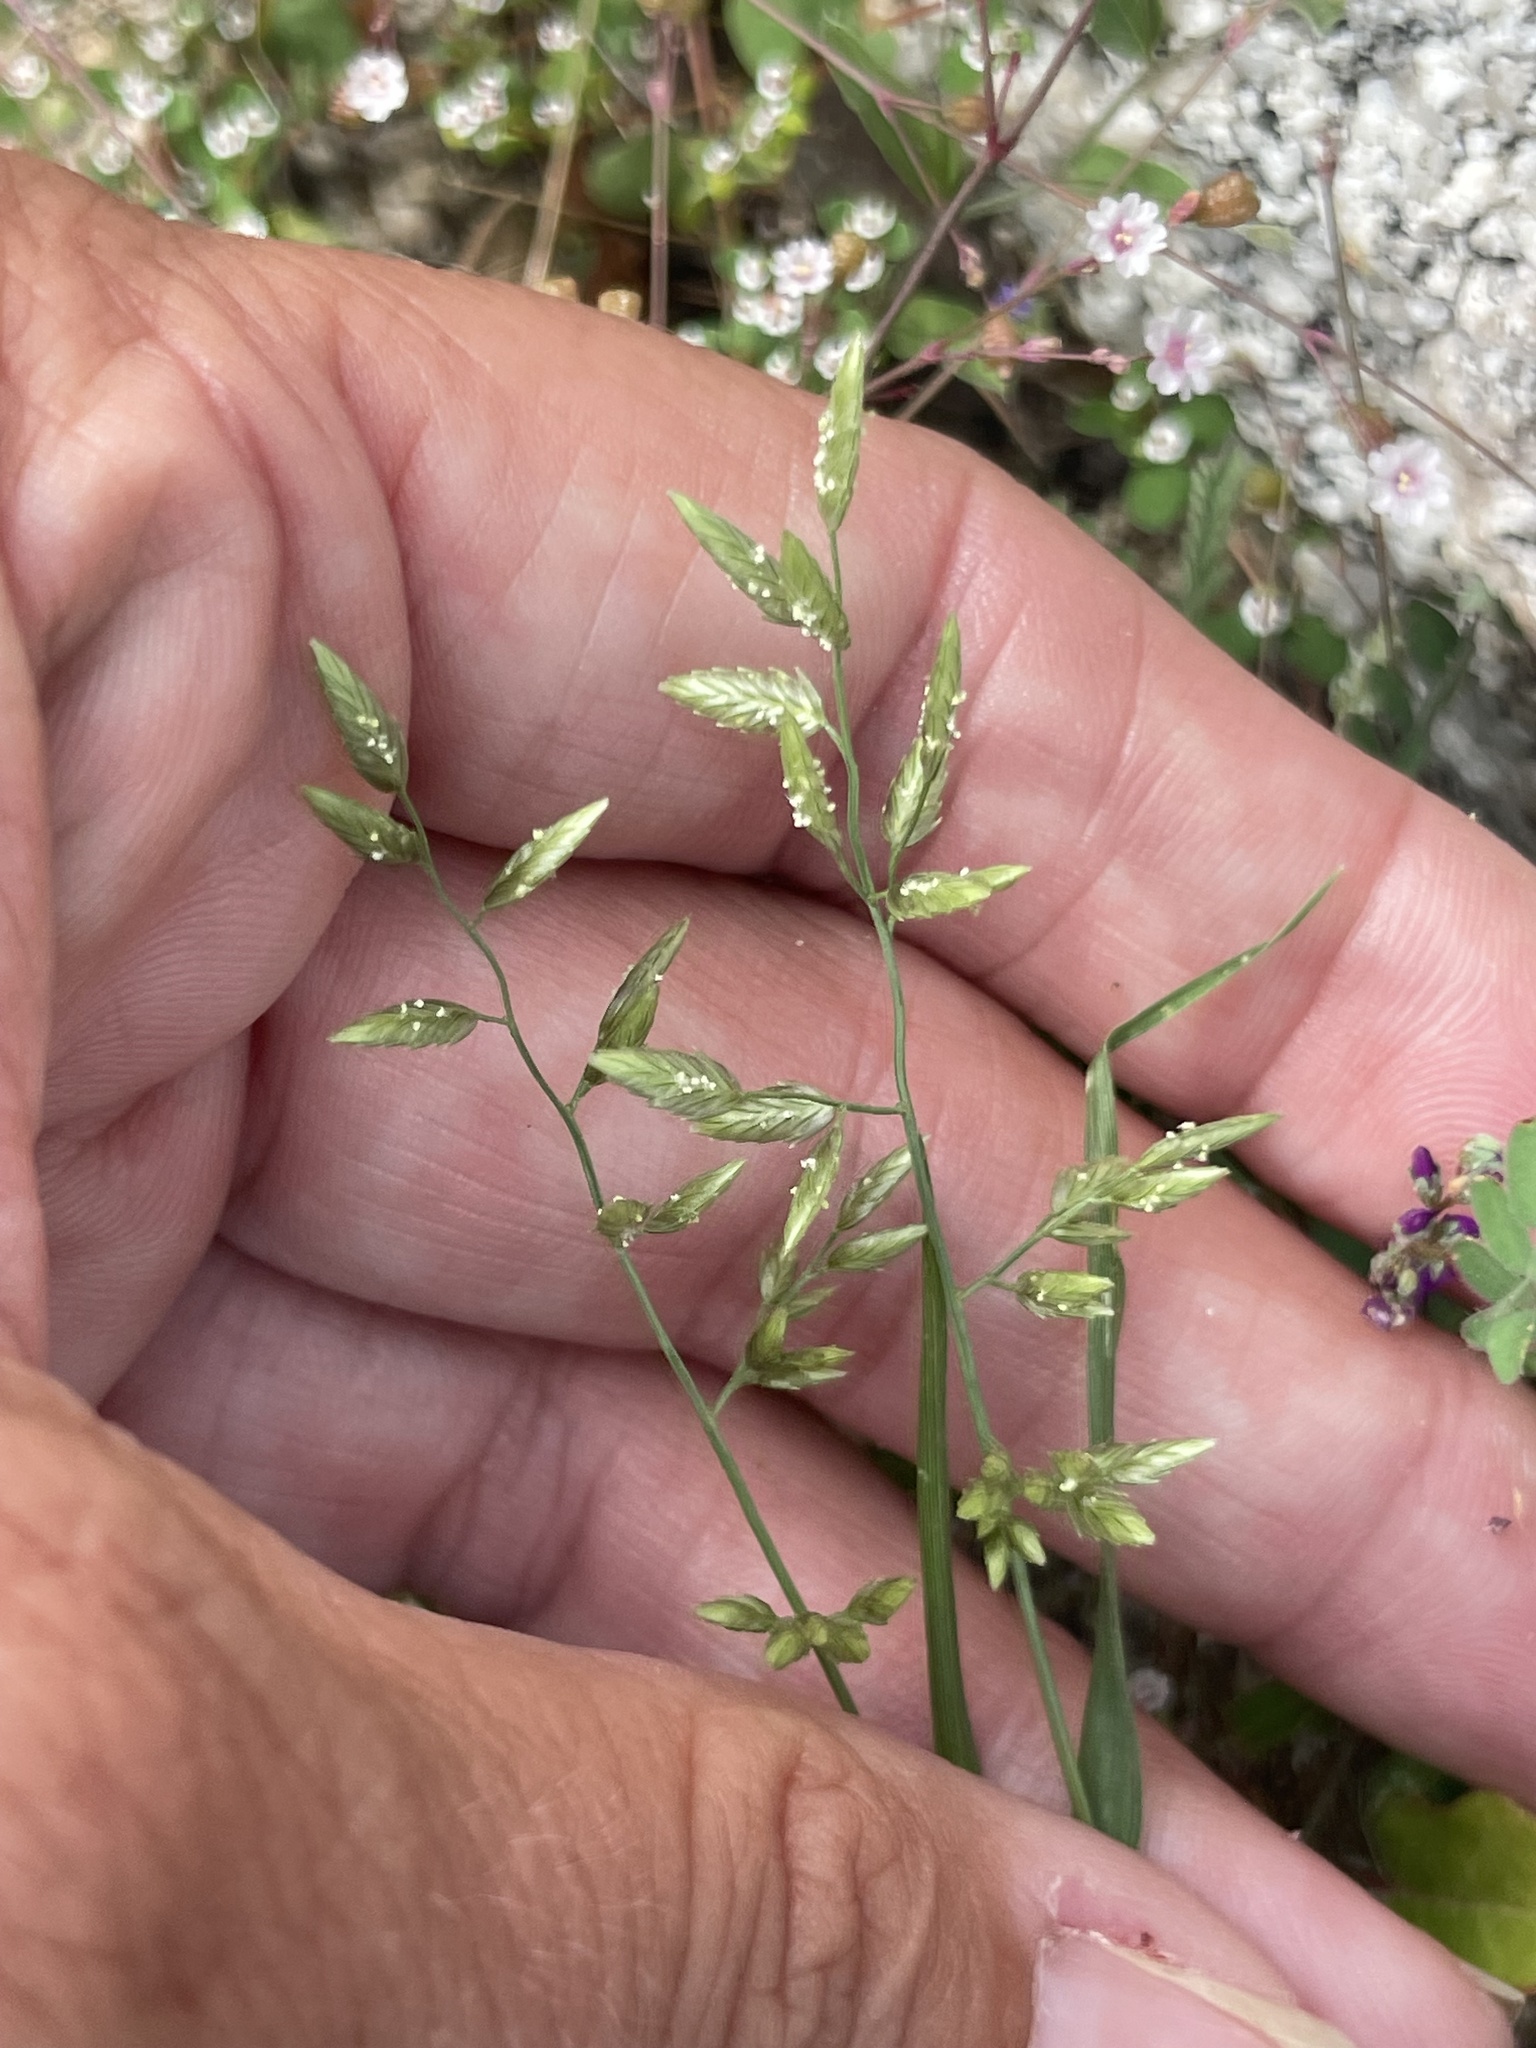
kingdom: Plantae
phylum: Tracheophyta
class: Liliopsida
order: Poales
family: Poaceae
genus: Eragrostis
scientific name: Eragrostis cilianensis
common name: Stinkgrass
